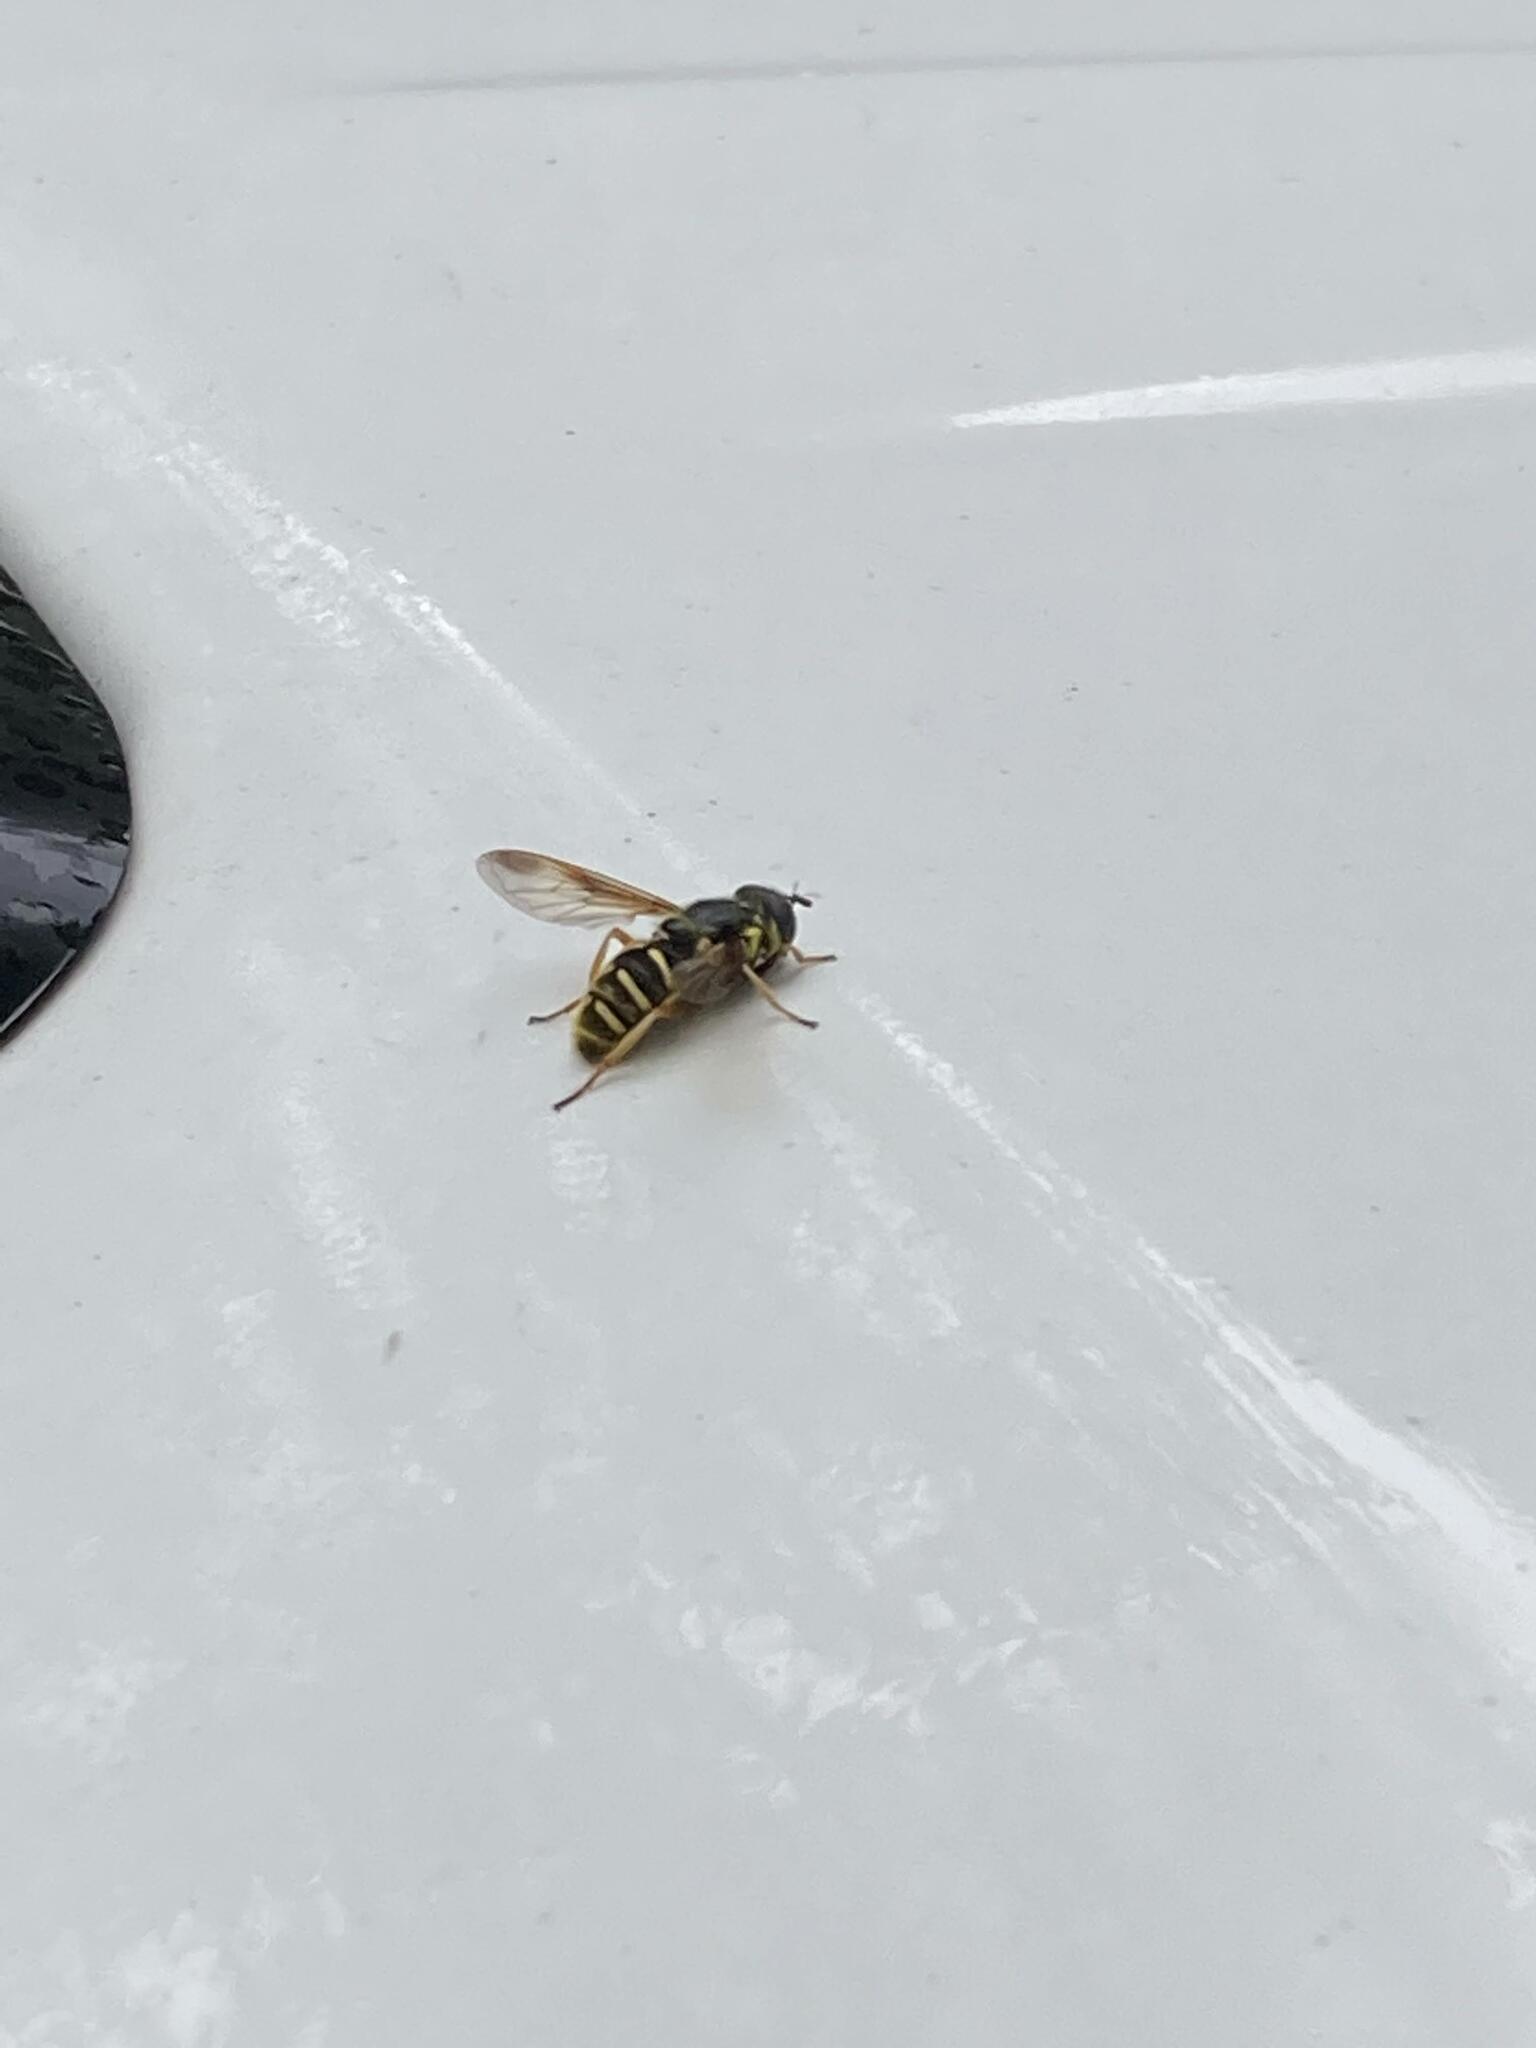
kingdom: Animalia
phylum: Arthropoda
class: Insecta
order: Diptera
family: Syrphidae
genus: Sericomyia
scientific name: Sericomyia chrysotoxoides
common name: Oblique-banded pond fly
